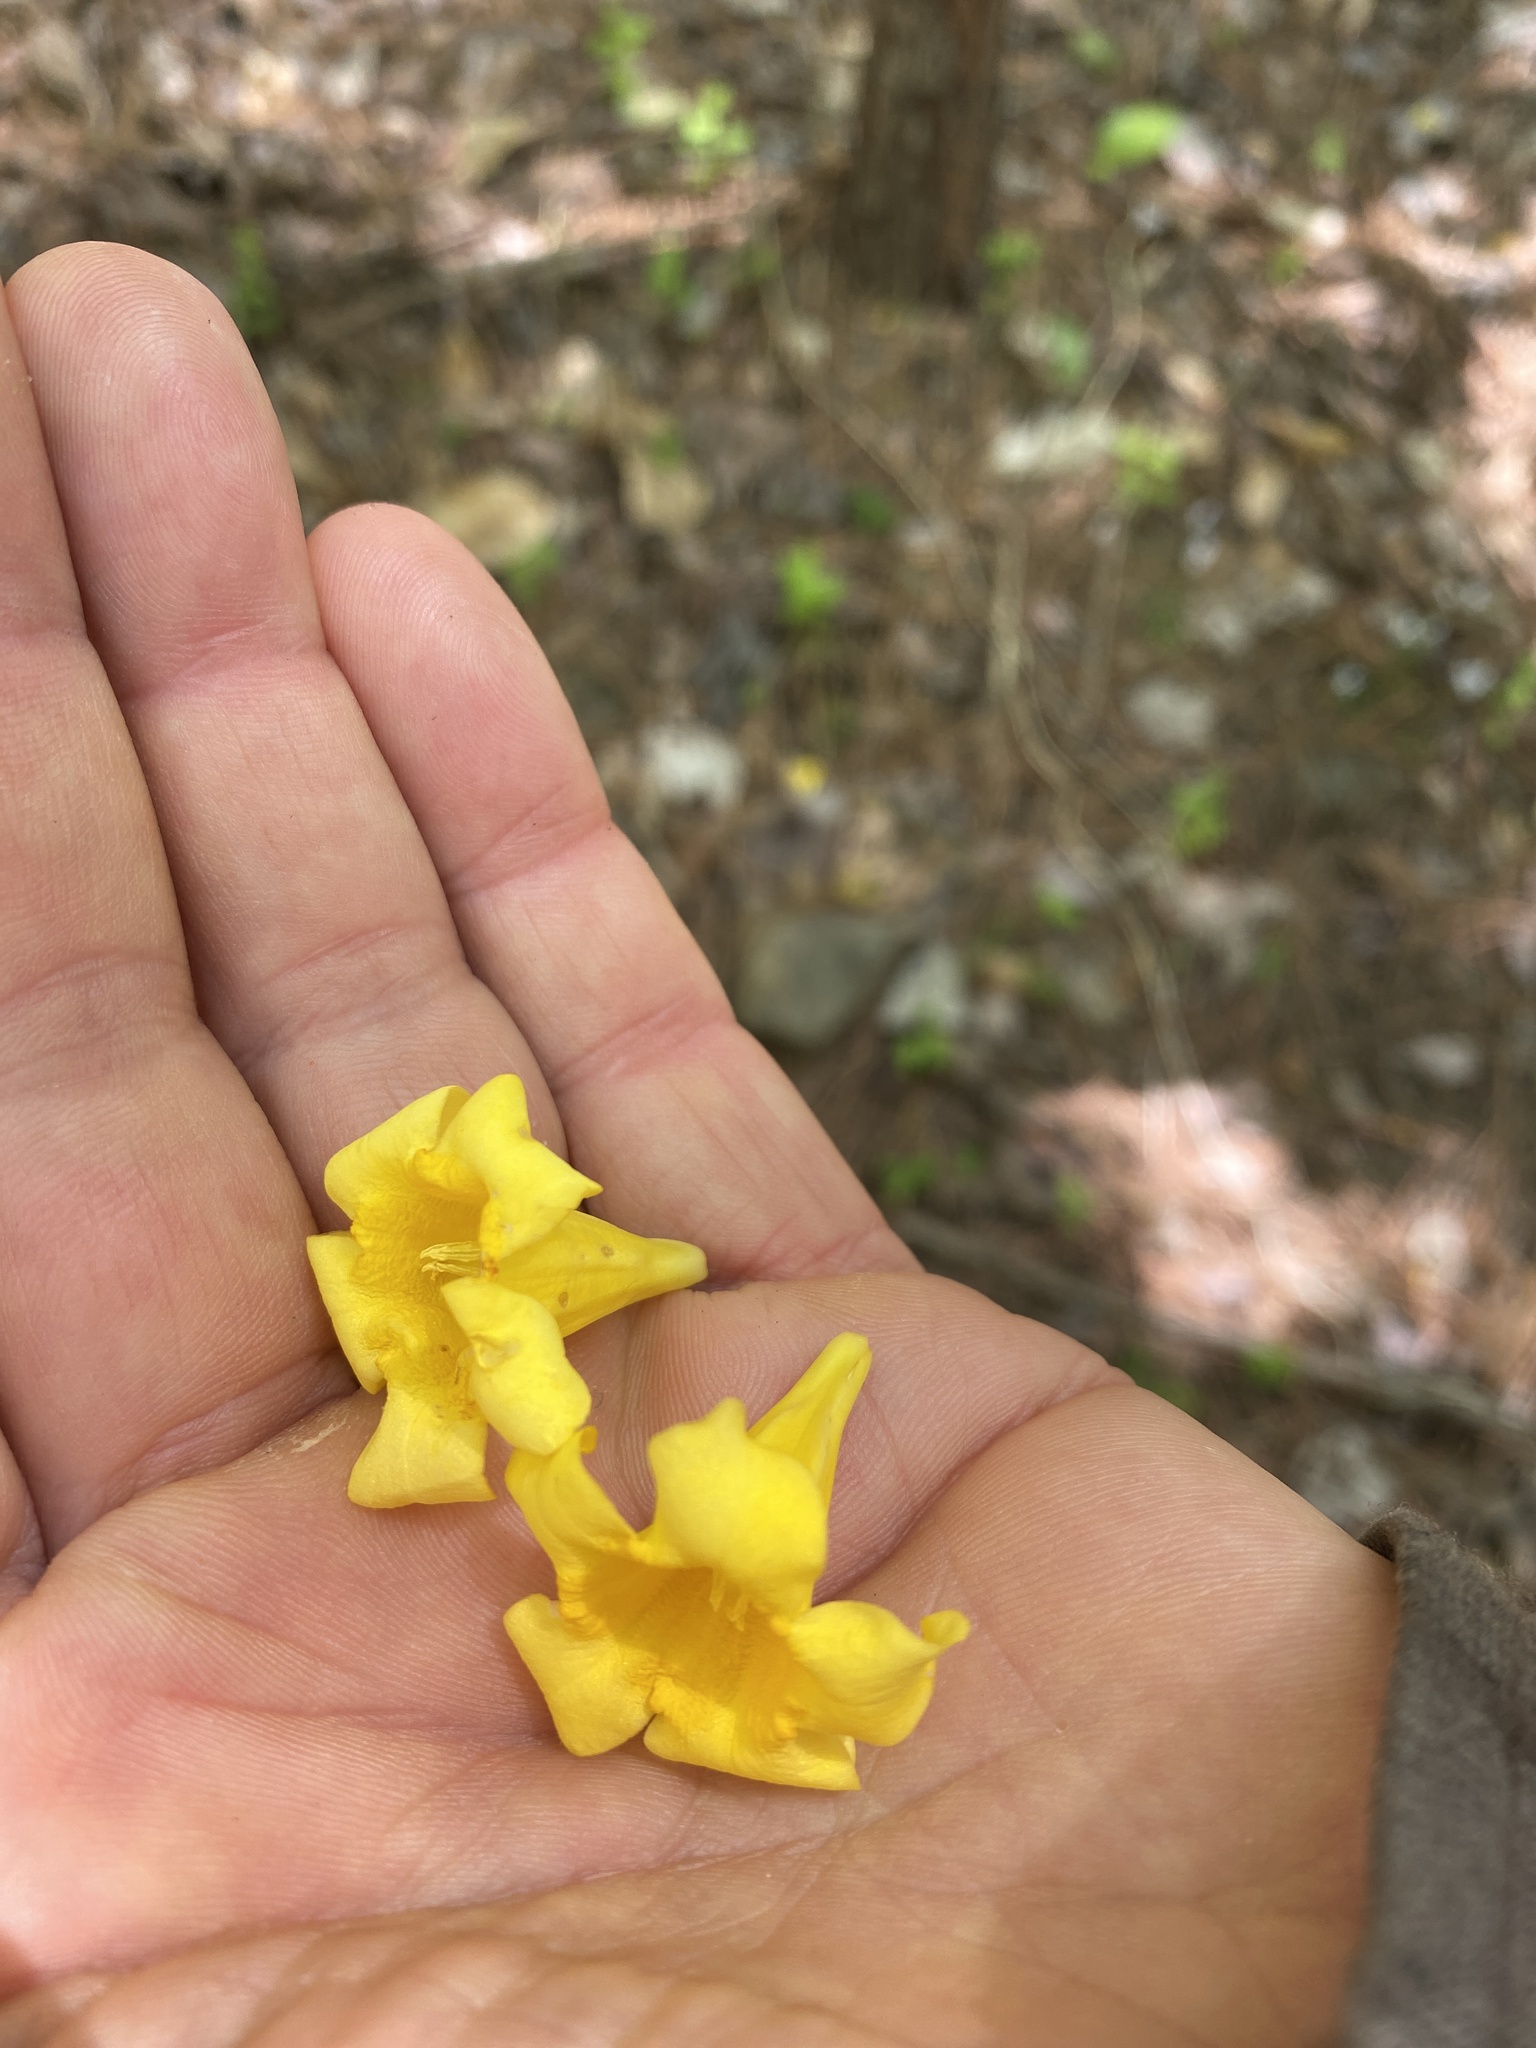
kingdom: Plantae
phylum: Tracheophyta
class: Magnoliopsida
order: Gentianales
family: Gelsemiaceae
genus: Gelsemium
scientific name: Gelsemium sempervirens
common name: Carolina-jasmine
